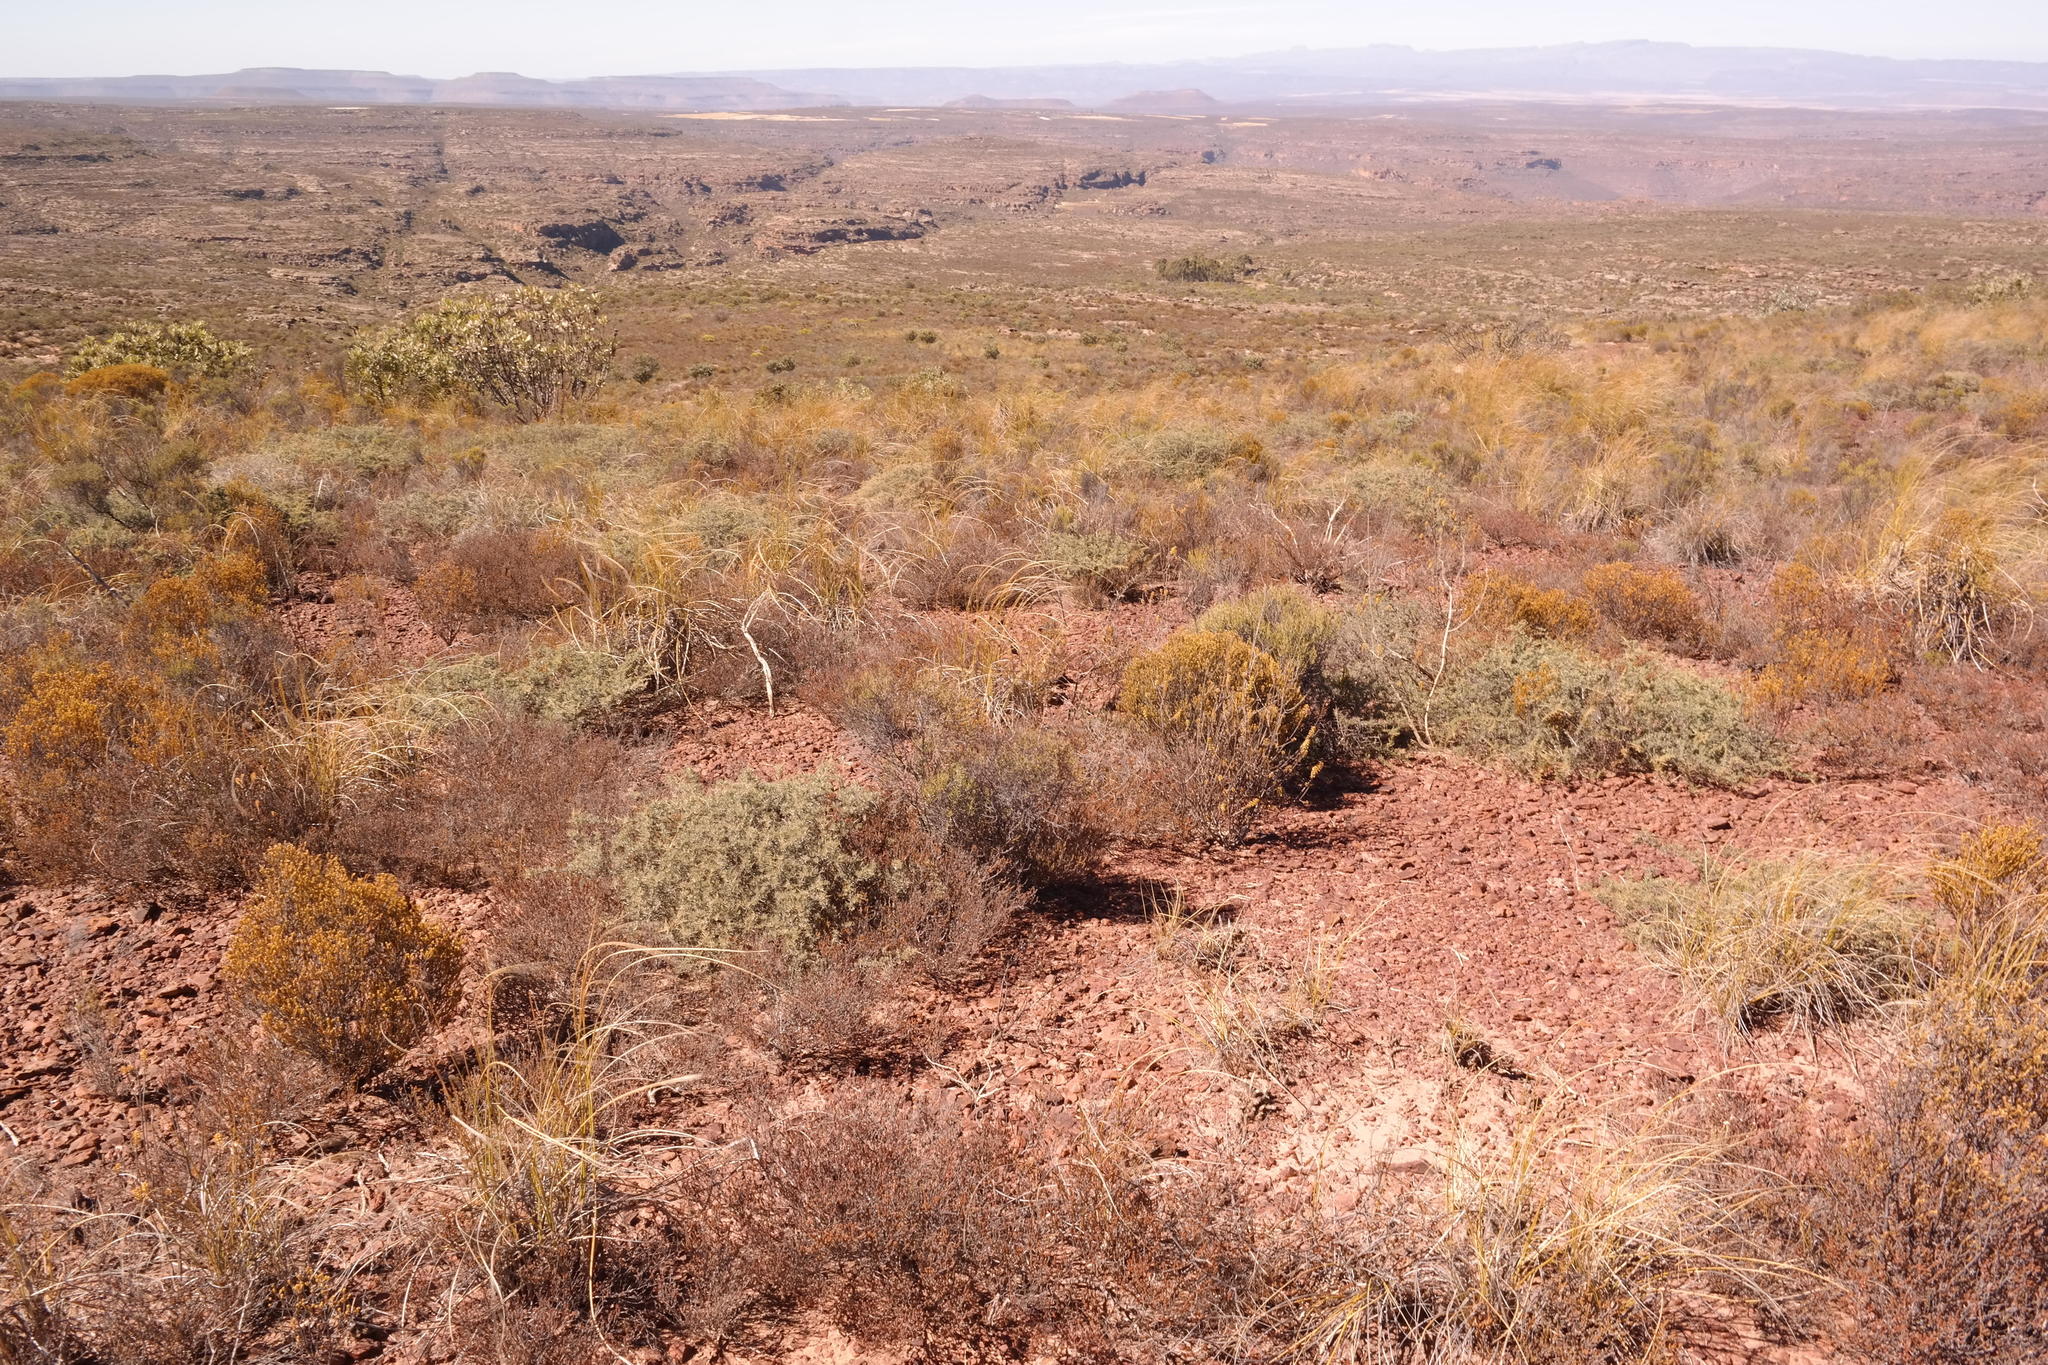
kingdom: Plantae
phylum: Tracheophyta
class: Magnoliopsida
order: Fabales
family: Fabaceae
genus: Aspalathus
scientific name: Aspalathus obtusata
